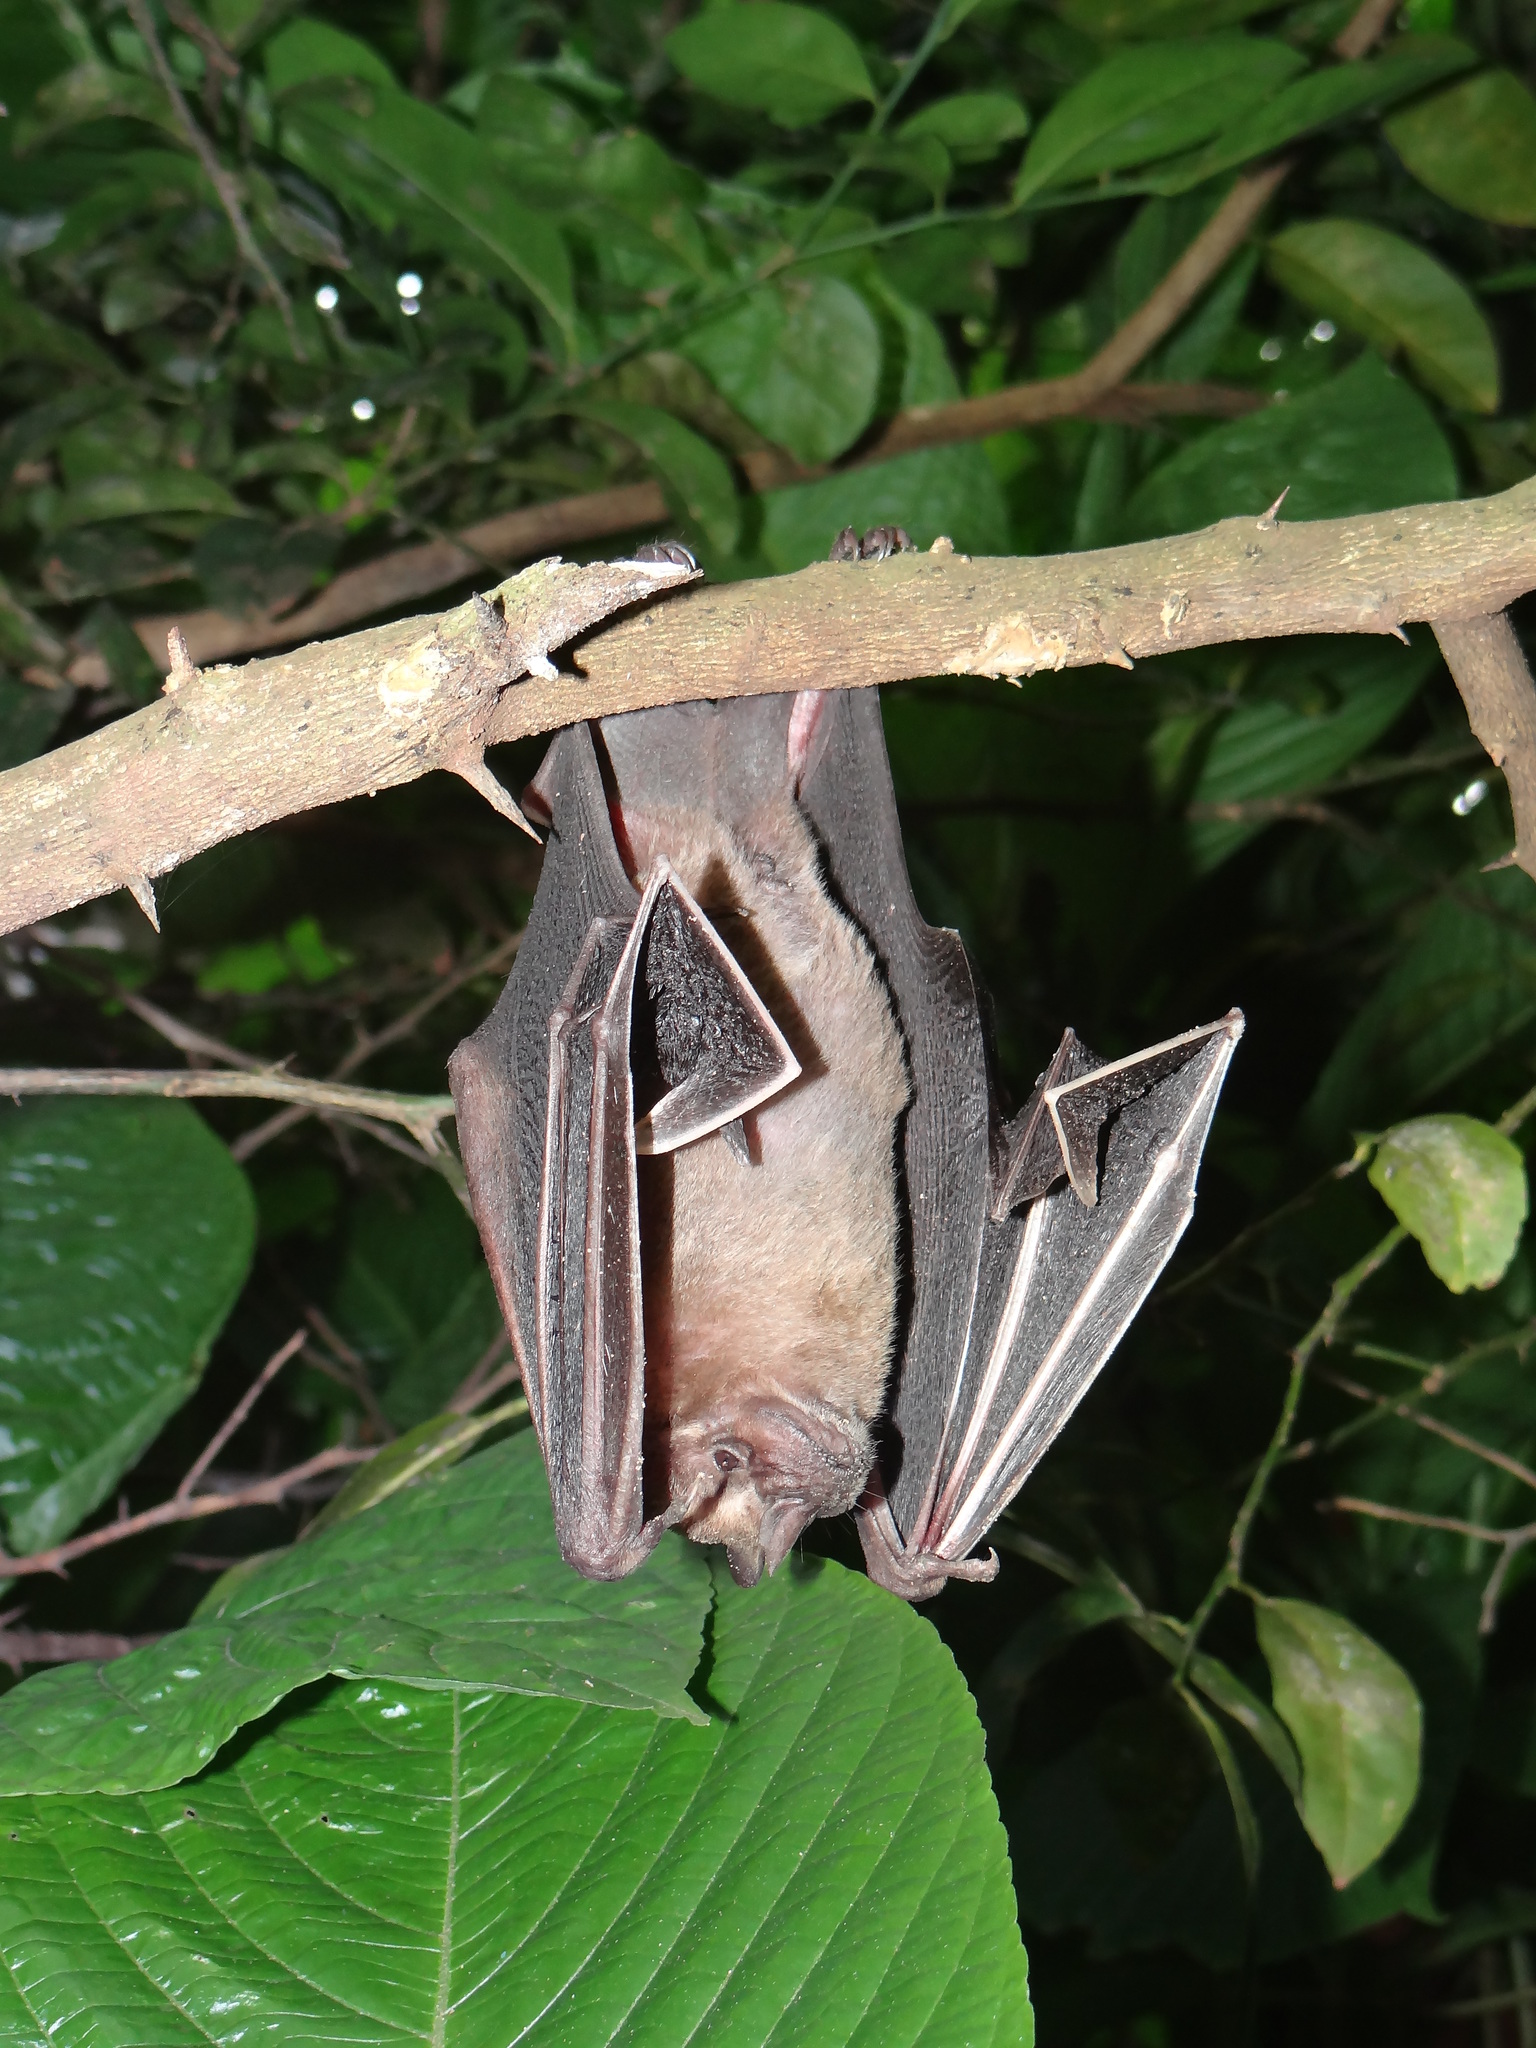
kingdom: Animalia
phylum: Chordata
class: Mammalia
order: Chiroptera
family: Phyllostomidae
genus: Artibeus
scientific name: Artibeus planirostris
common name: Flat-faced fruit-eating bat
